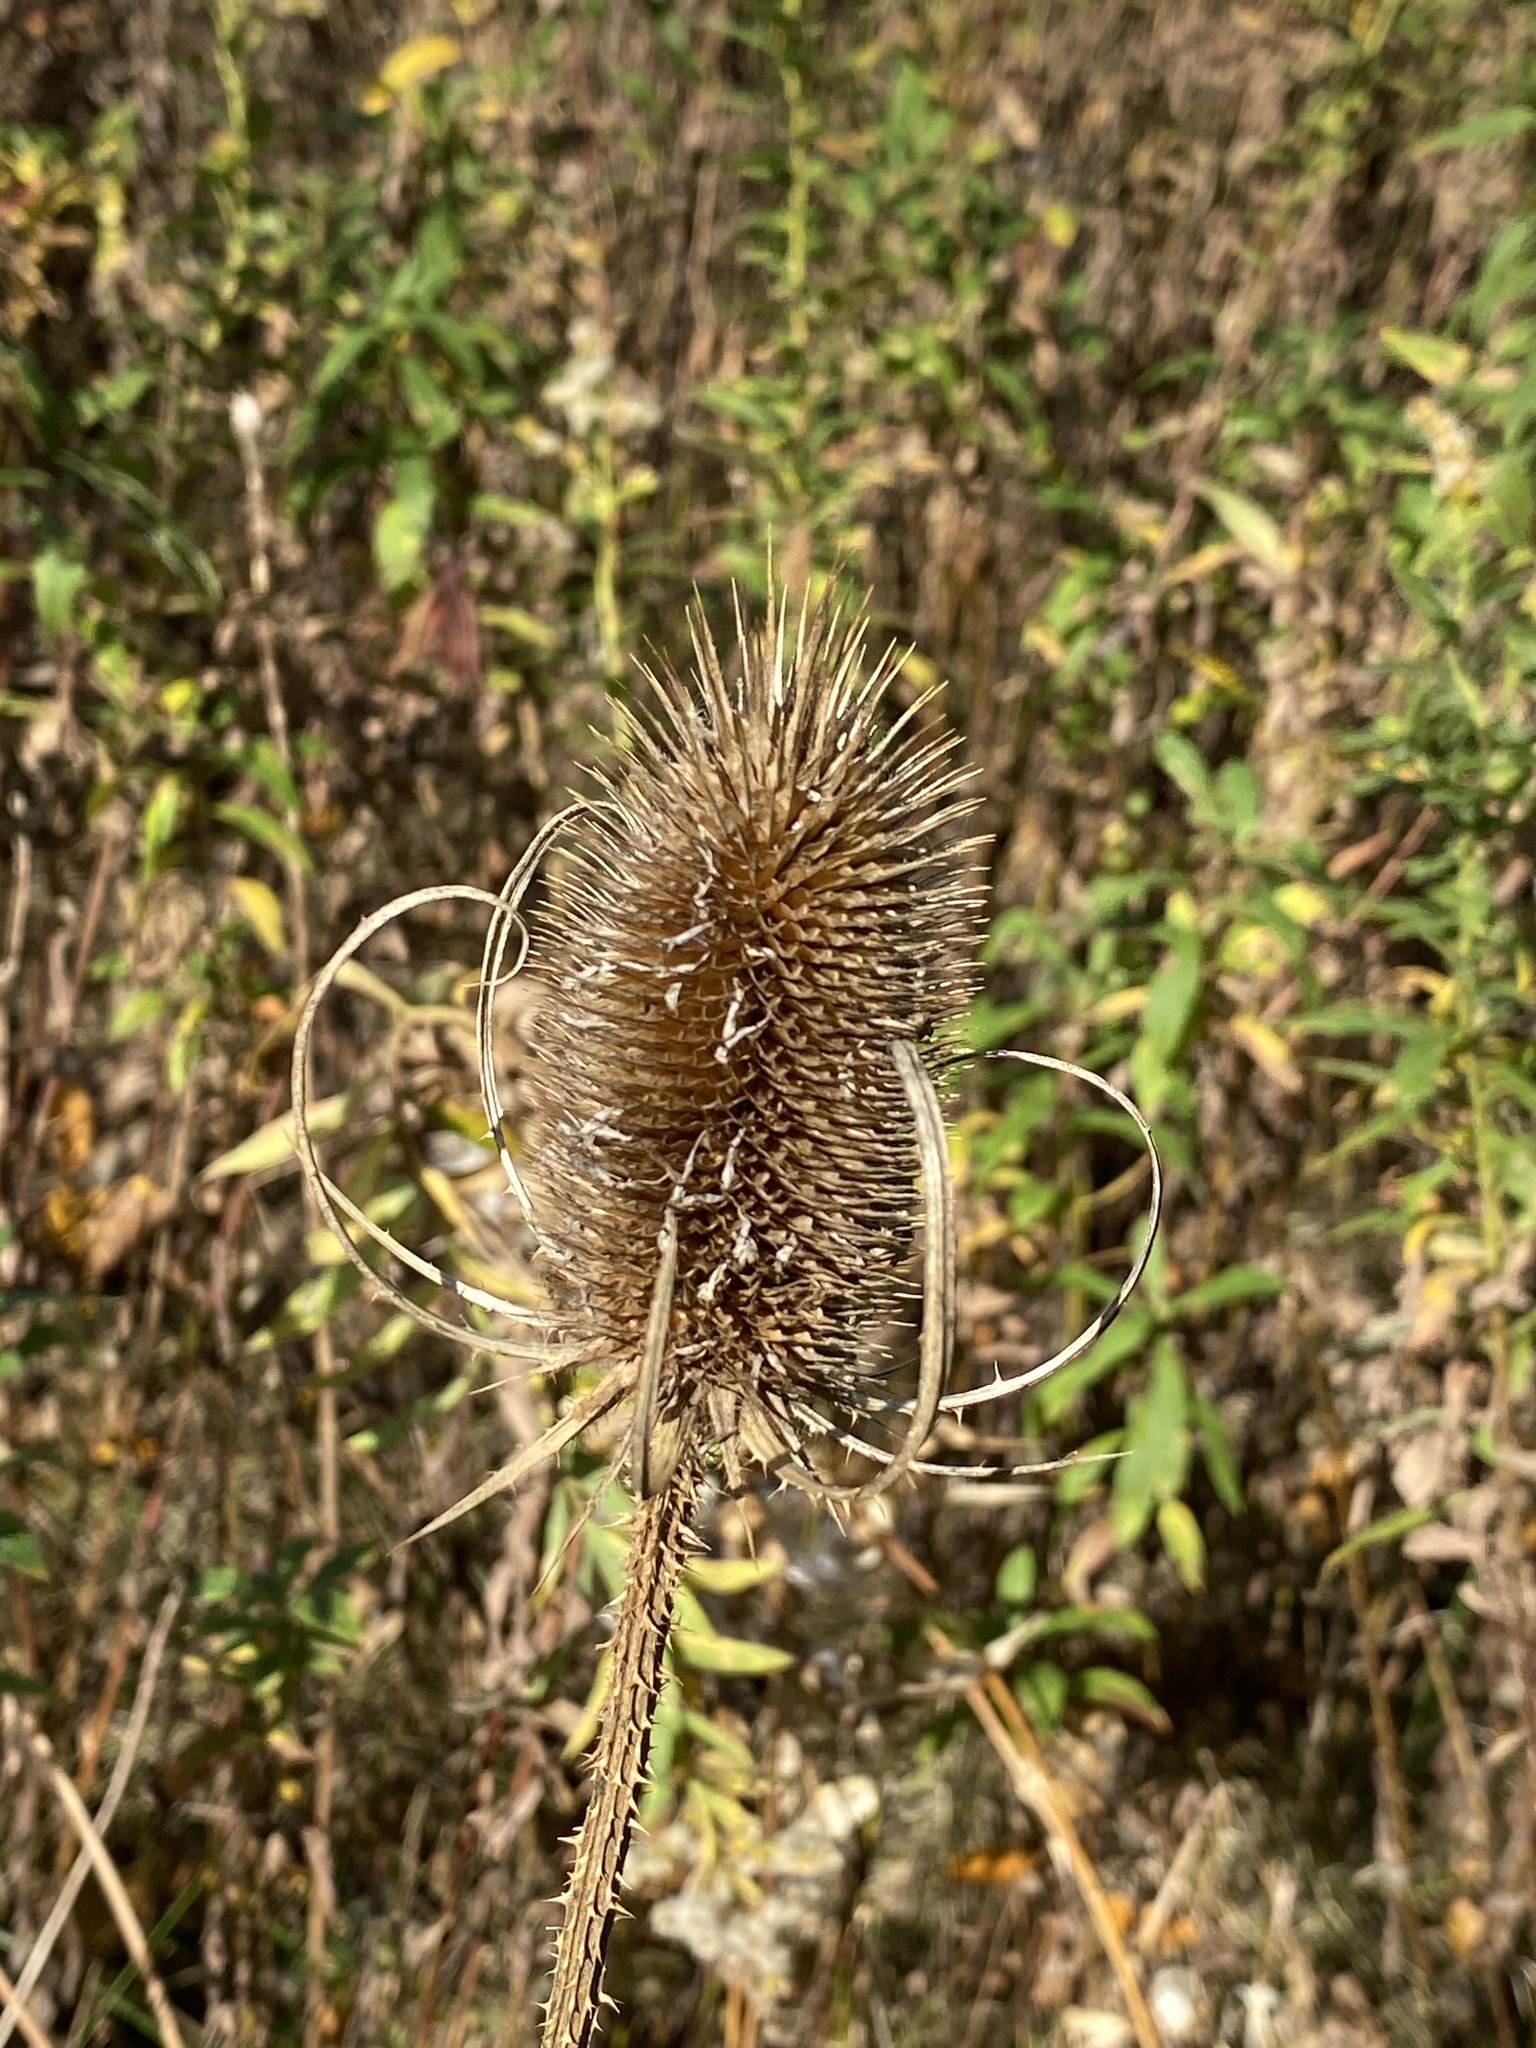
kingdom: Plantae
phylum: Tracheophyta
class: Magnoliopsida
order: Dipsacales
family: Caprifoliaceae
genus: Dipsacus
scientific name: Dipsacus fullonum
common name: Teasel
